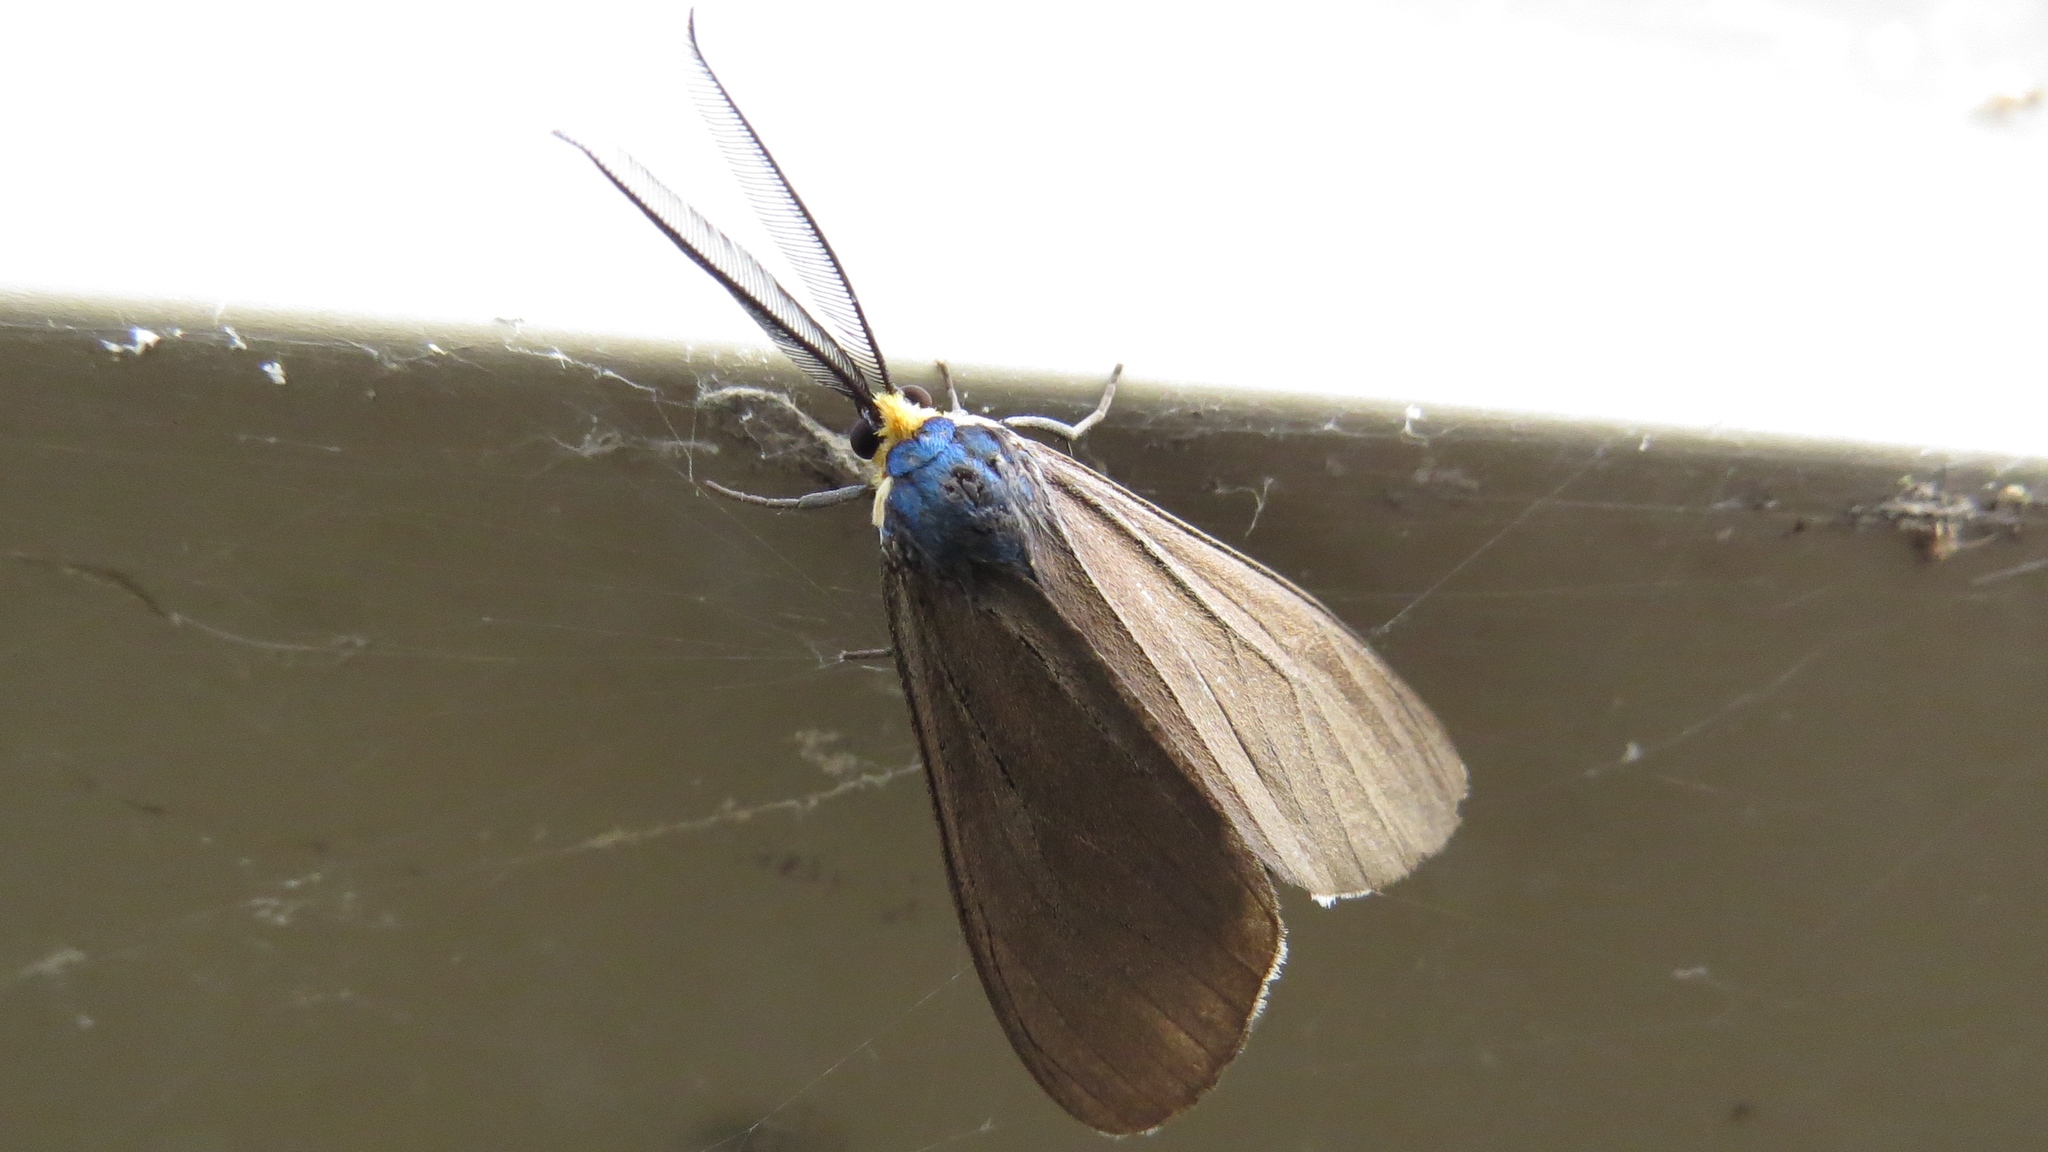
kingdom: Animalia
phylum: Arthropoda
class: Insecta
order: Lepidoptera
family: Erebidae
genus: Ctenucha
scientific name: Ctenucha virginica
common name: Virginia ctenucha moth
